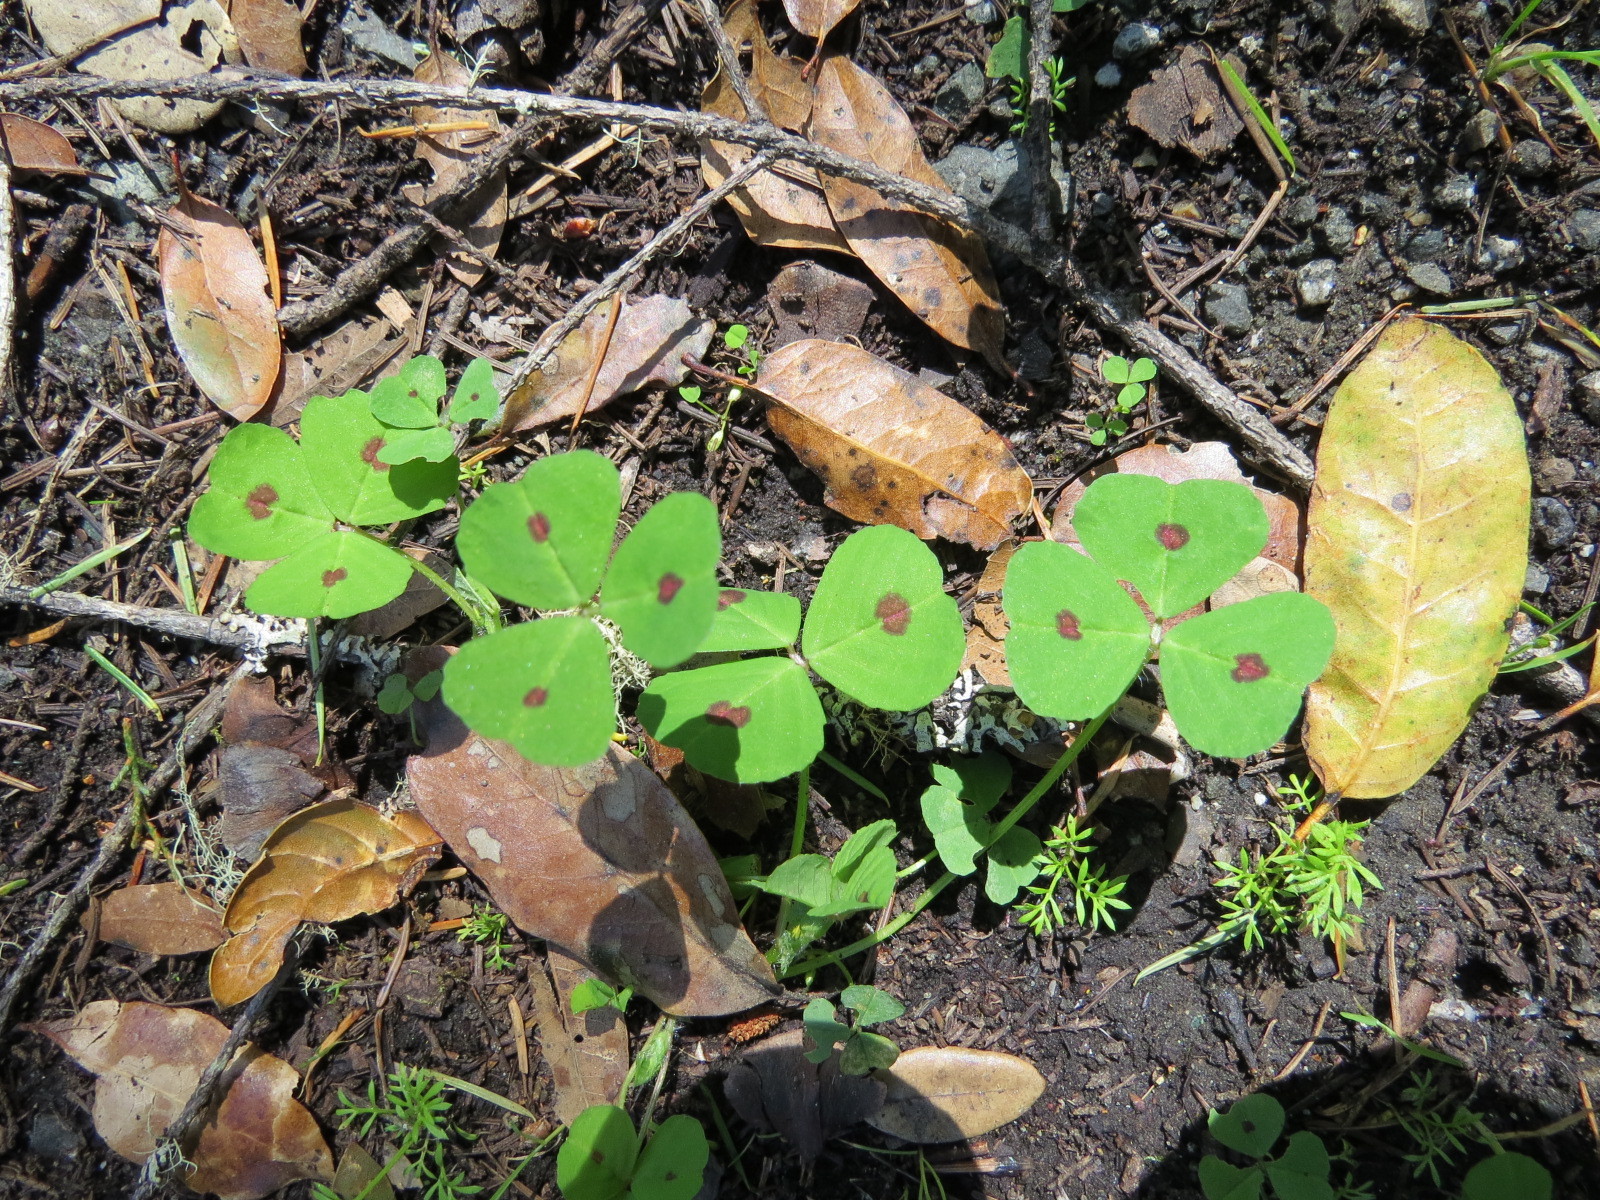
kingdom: Plantae
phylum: Tracheophyta
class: Magnoliopsida
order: Fabales
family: Fabaceae
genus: Medicago
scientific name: Medicago arabica
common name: Spotted medick
